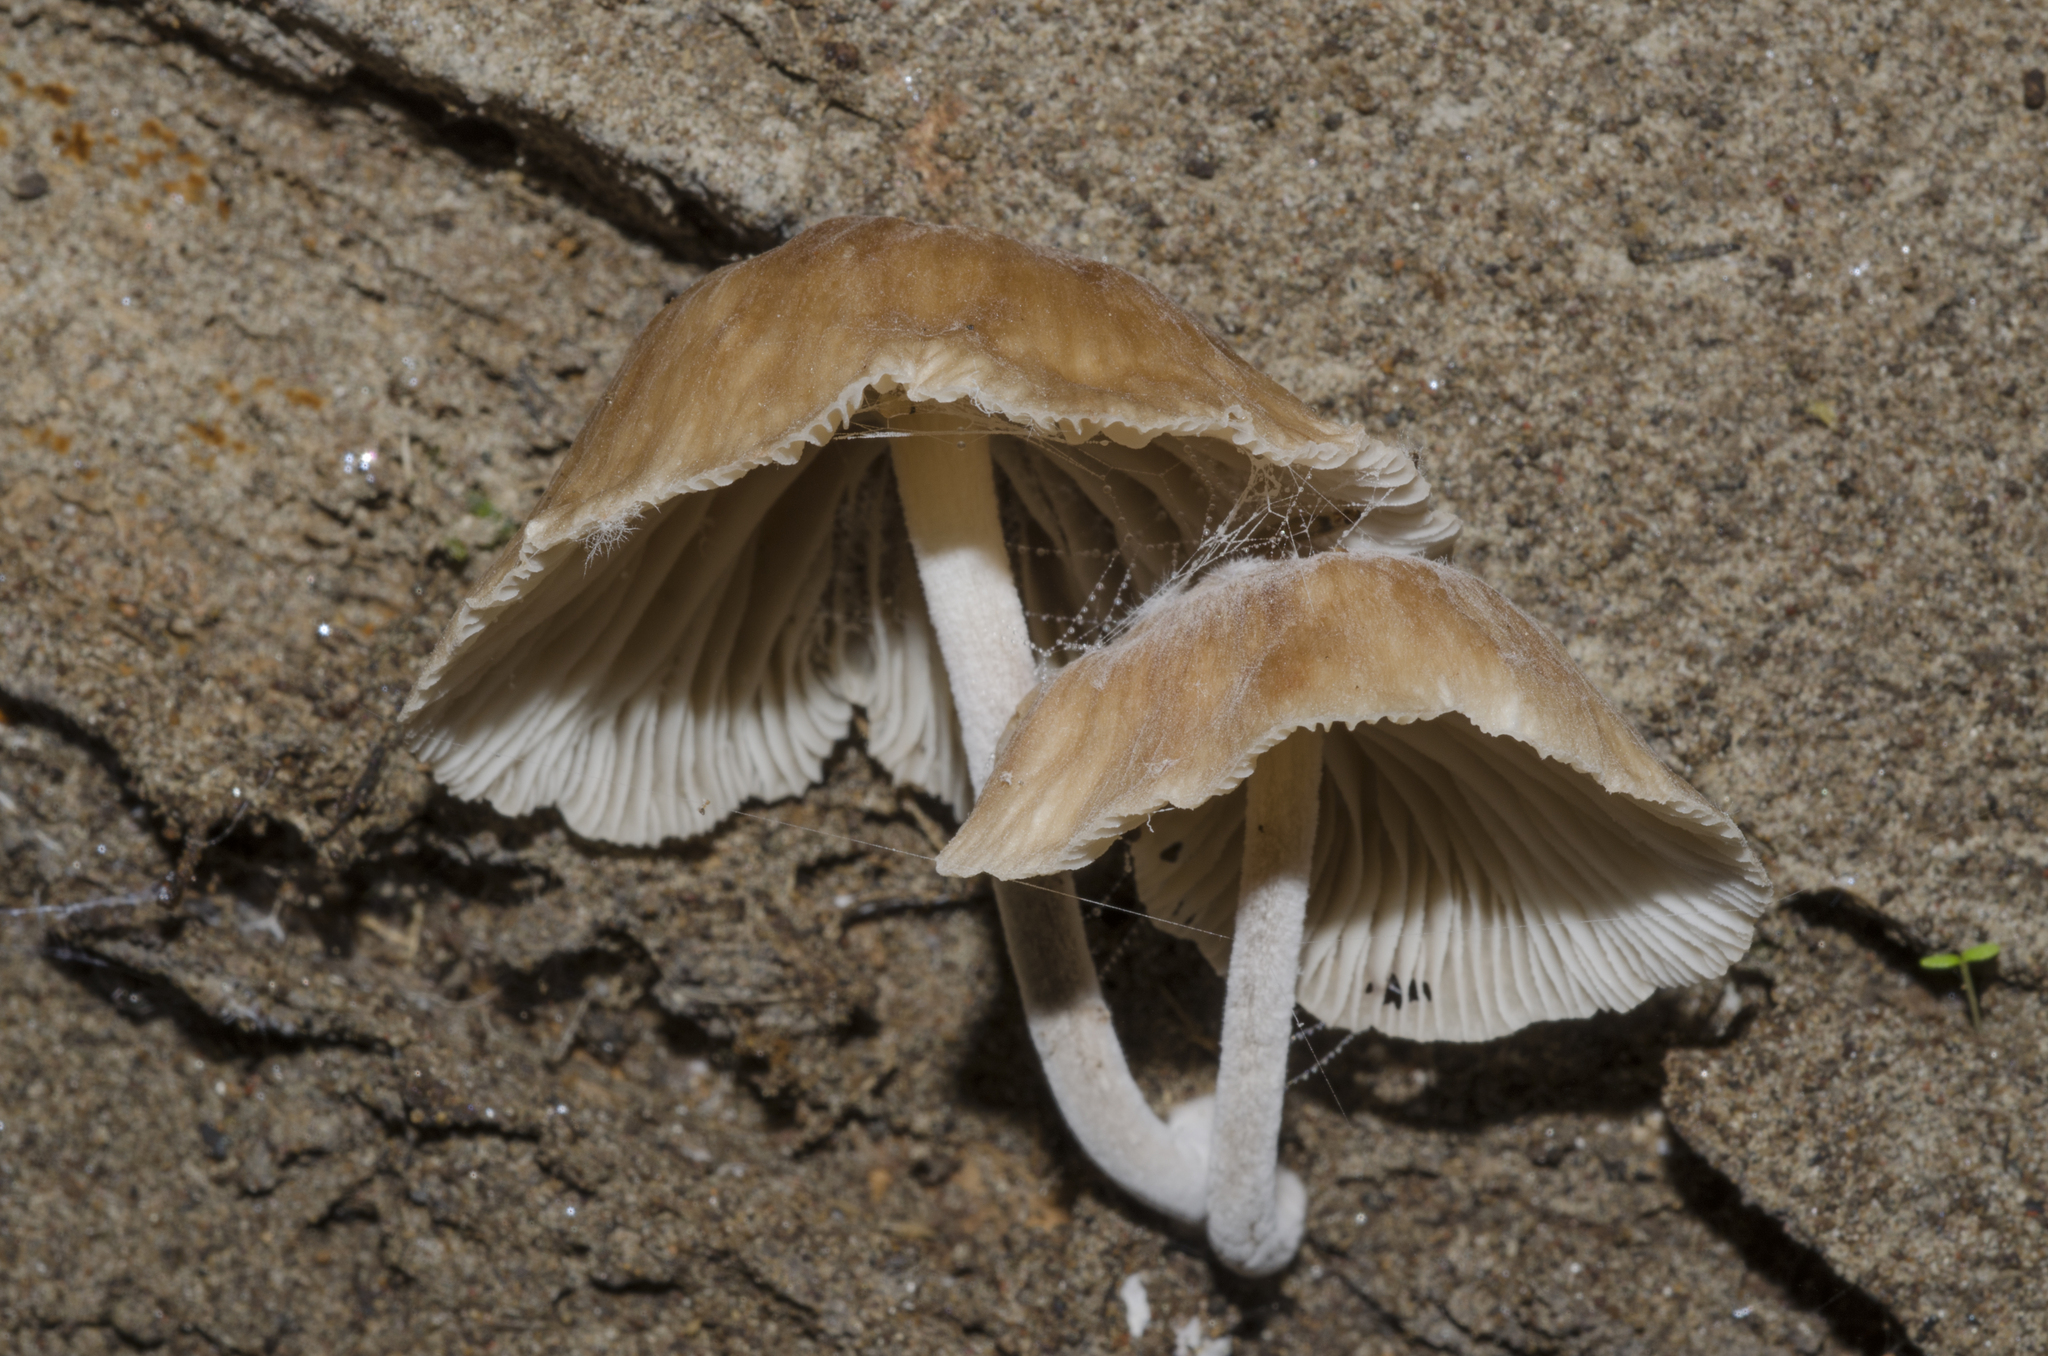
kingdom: Fungi
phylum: Basidiomycota
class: Agaricomycetes
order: Agaricales
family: Omphalotaceae
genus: Collybiopsis
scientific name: Collybiopsis subpruinosa
